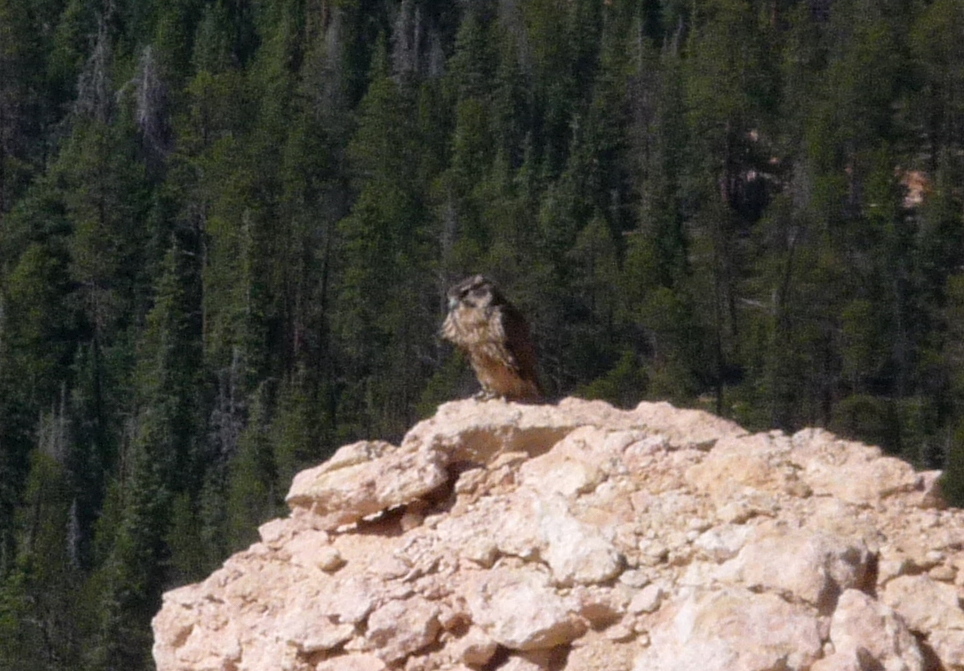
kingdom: Animalia
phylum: Chordata
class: Aves
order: Falconiformes
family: Falconidae
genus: Falco
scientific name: Falco mexicanus
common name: Prairie falcon
